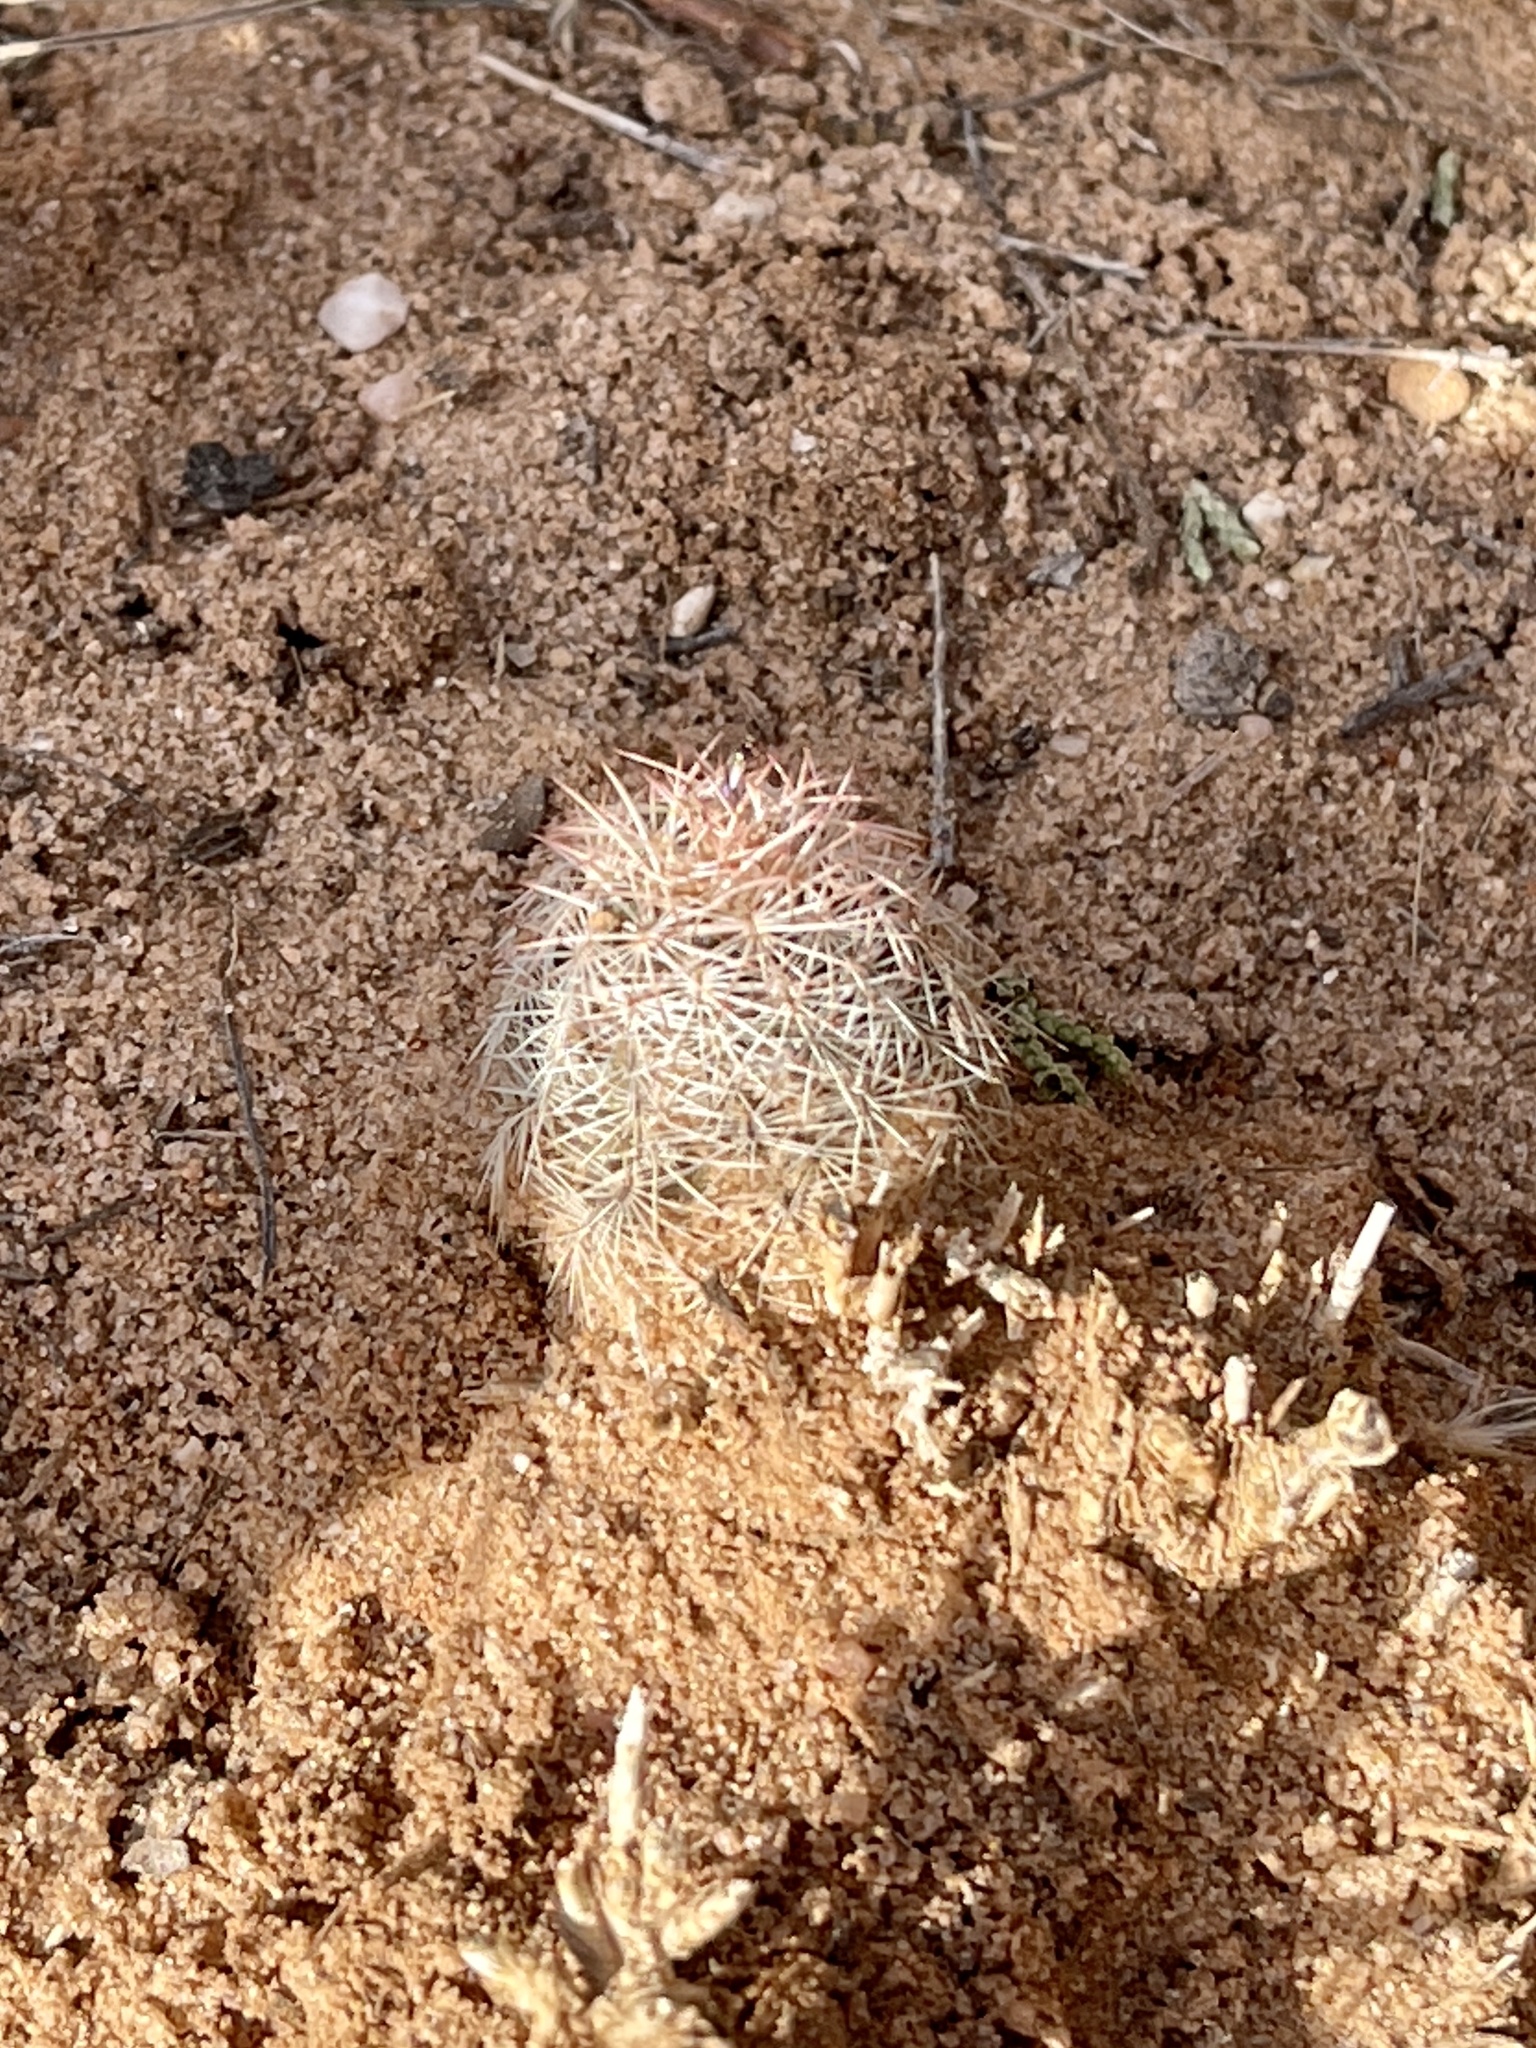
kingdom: Plantae
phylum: Tracheophyta
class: Magnoliopsida
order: Caryophyllales
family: Cactaceae
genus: Echinocereus
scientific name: Echinocereus reichenbachii
